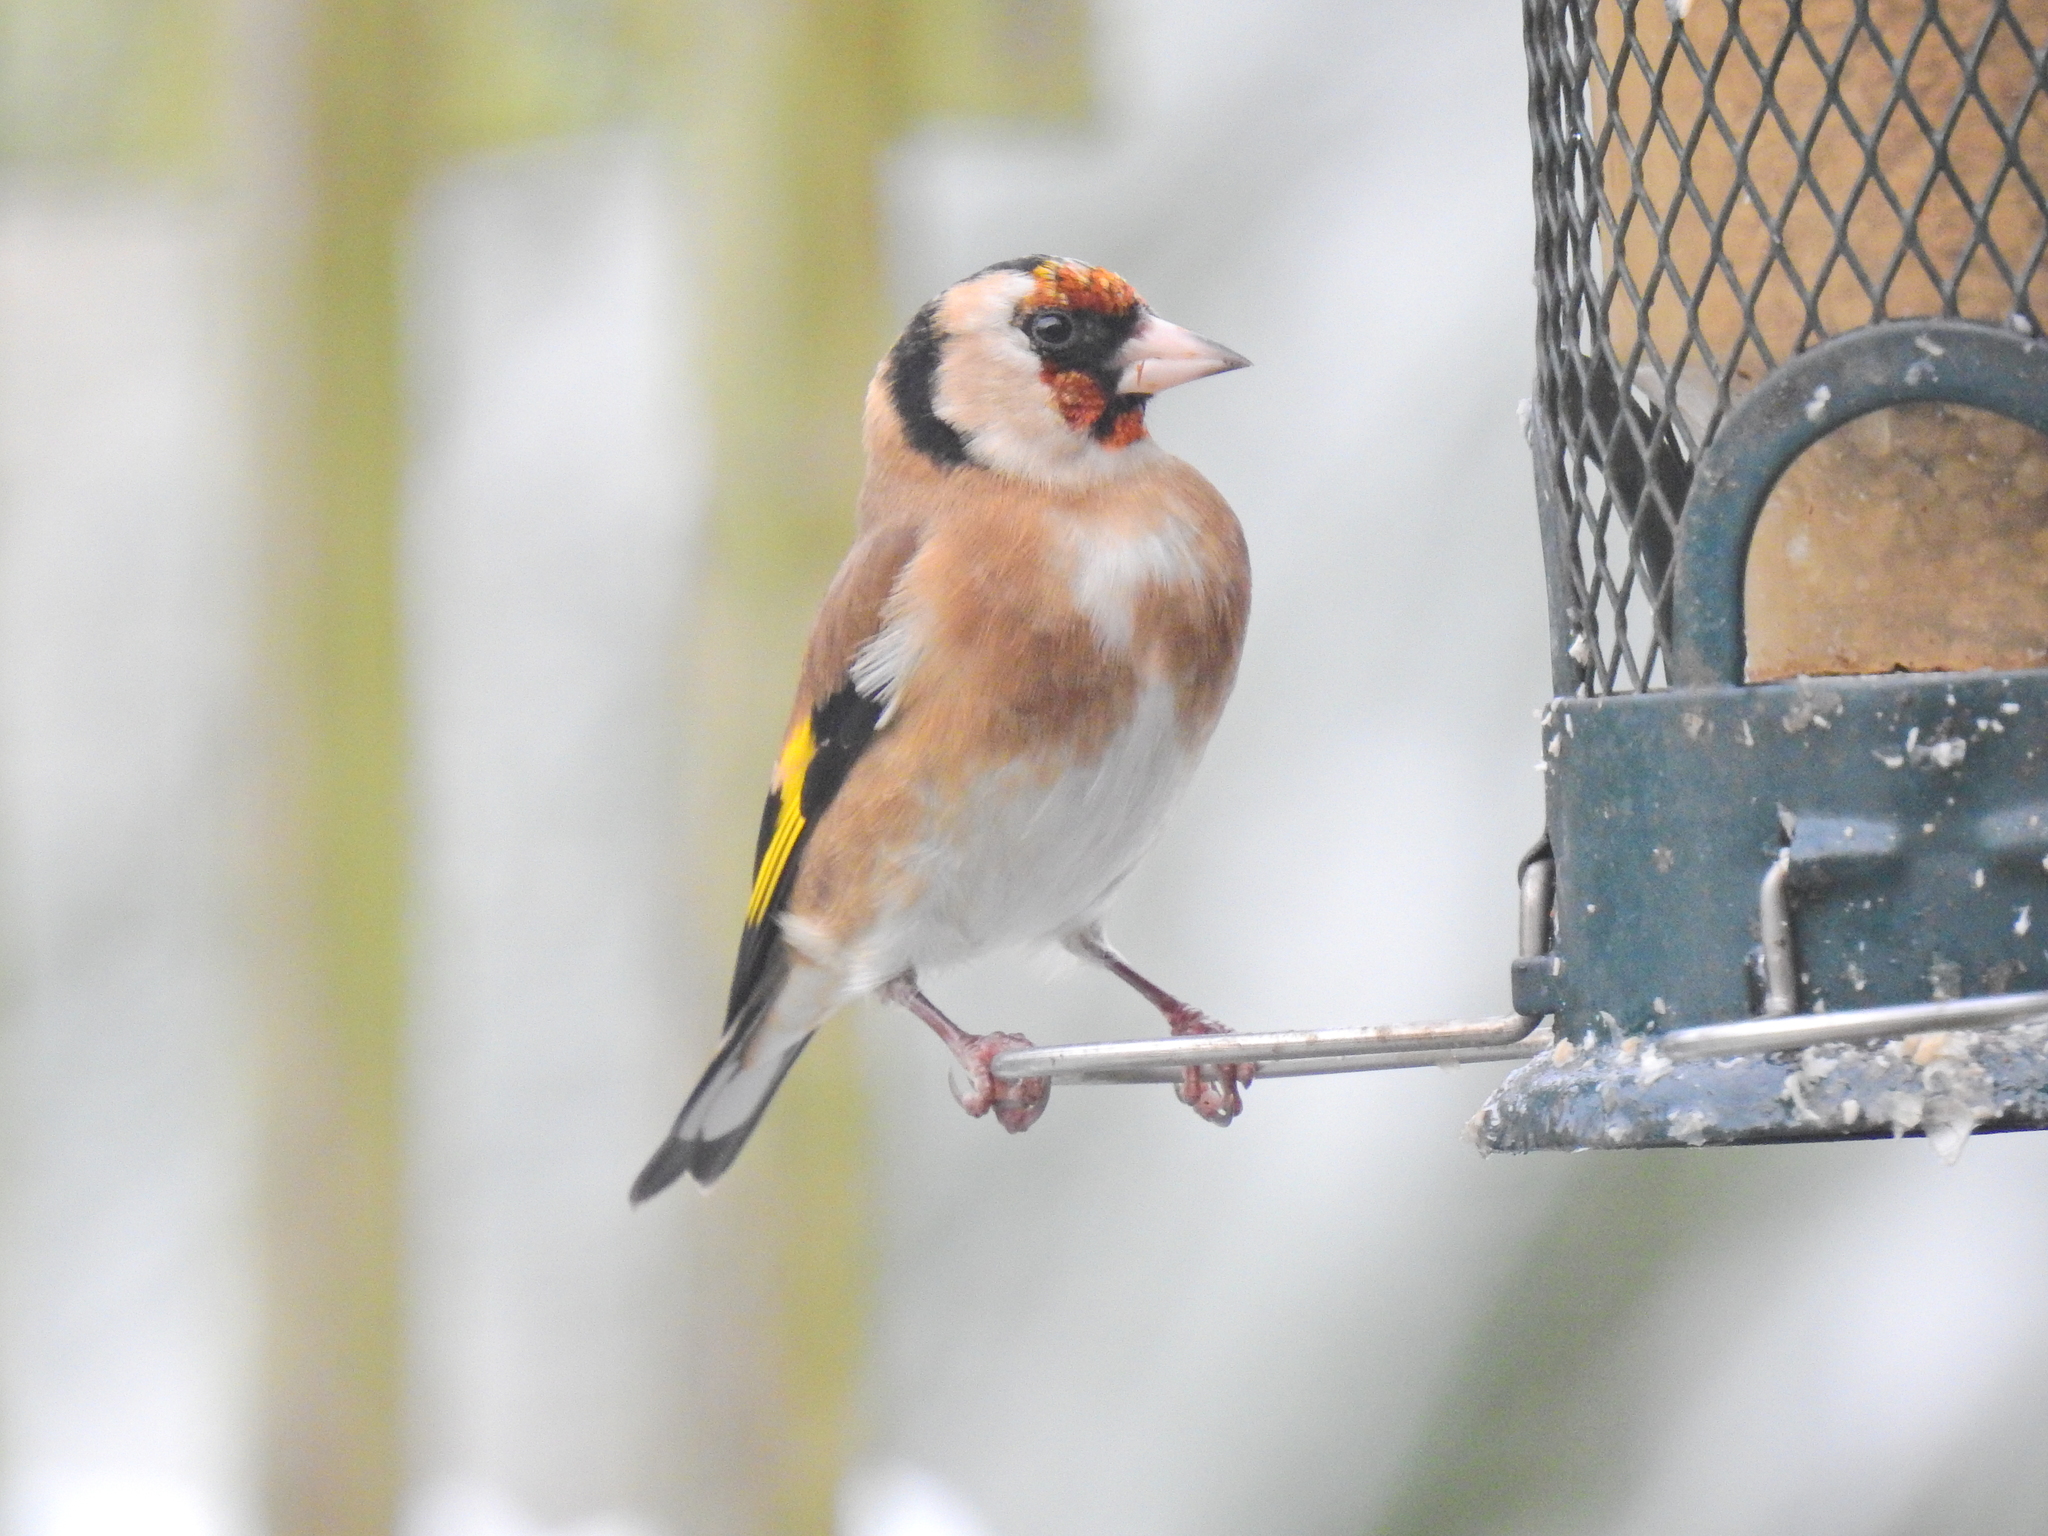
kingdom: Animalia
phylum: Chordata
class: Aves
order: Passeriformes
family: Fringillidae
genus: Carduelis
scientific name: Carduelis carduelis
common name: European goldfinch
